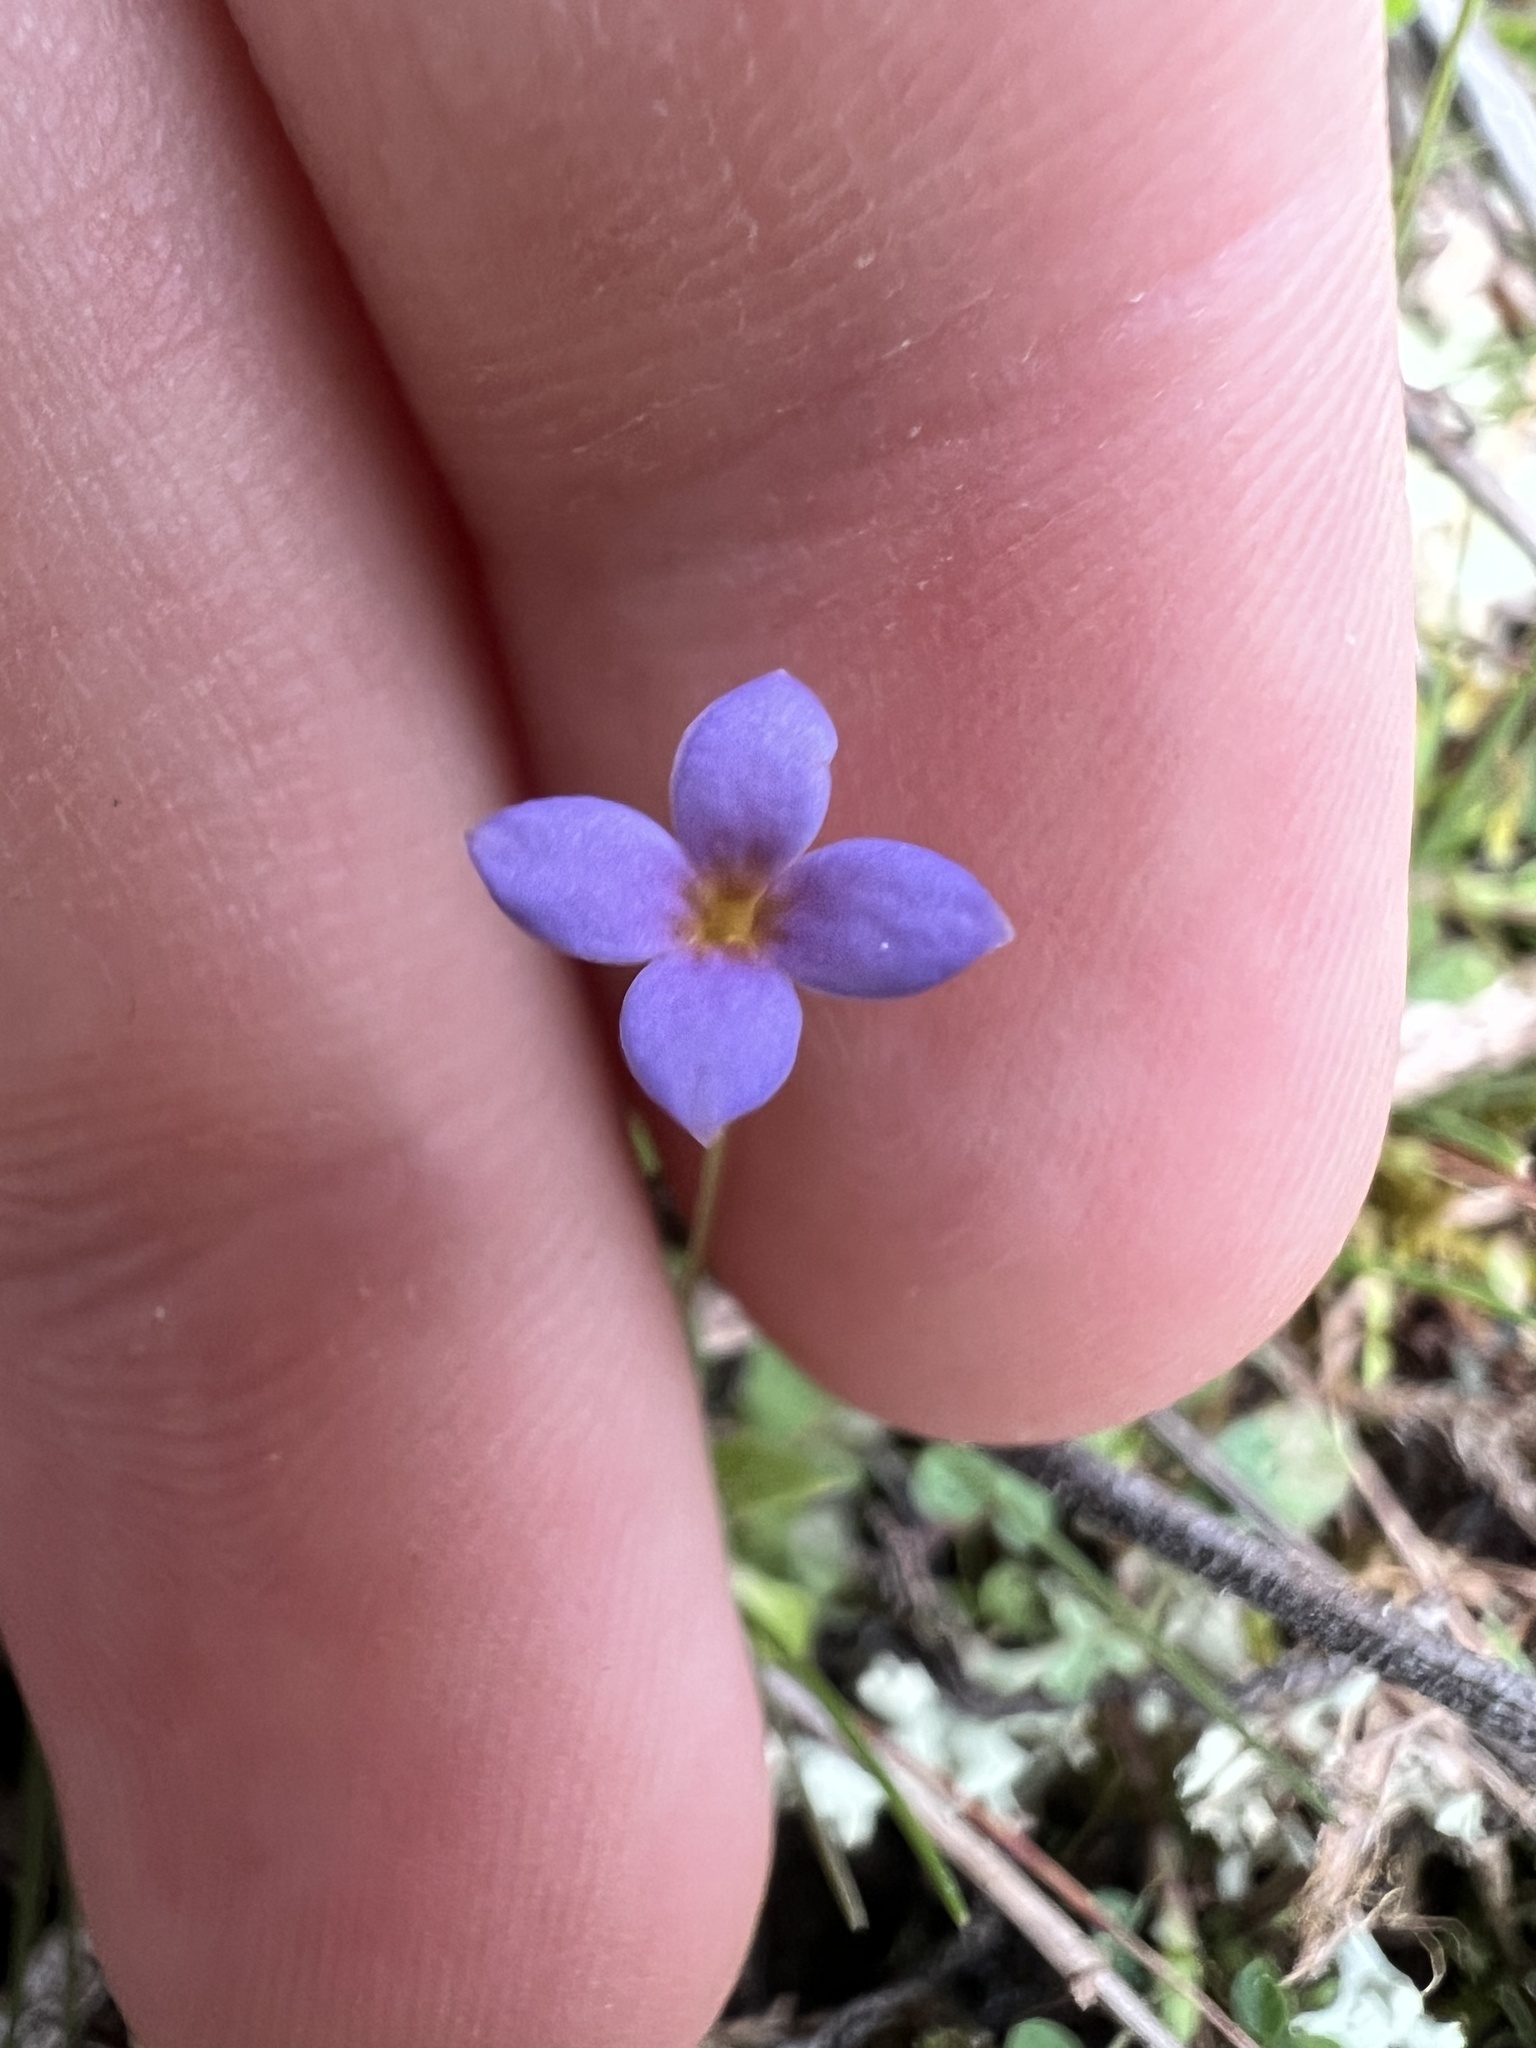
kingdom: Plantae
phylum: Tracheophyta
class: Magnoliopsida
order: Gentianales
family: Rubiaceae
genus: Houstonia
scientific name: Houstonia pusilla
